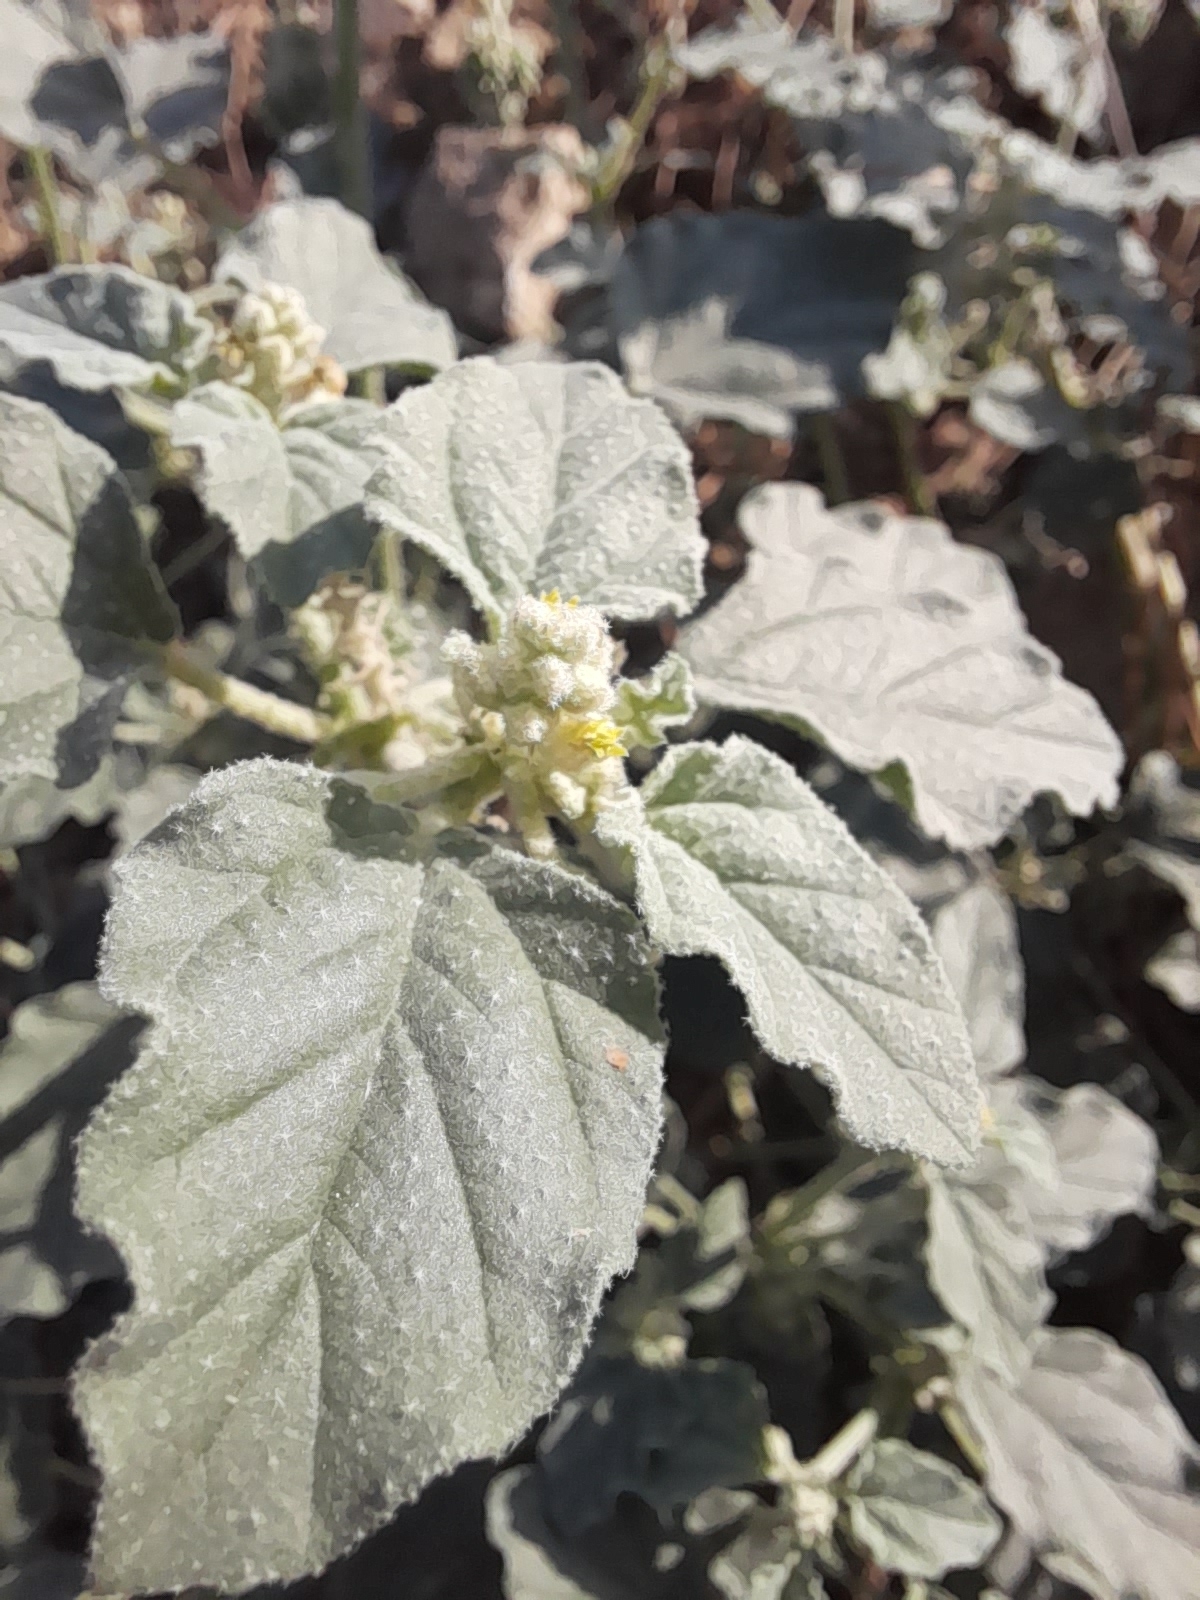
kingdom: Plantae
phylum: Tracheophyta
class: Magnoliopsida
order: Malpighiales
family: Euphorbiaceae
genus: Chrozophora
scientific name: Chrozophora tinctoria
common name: Dyer's litmus
